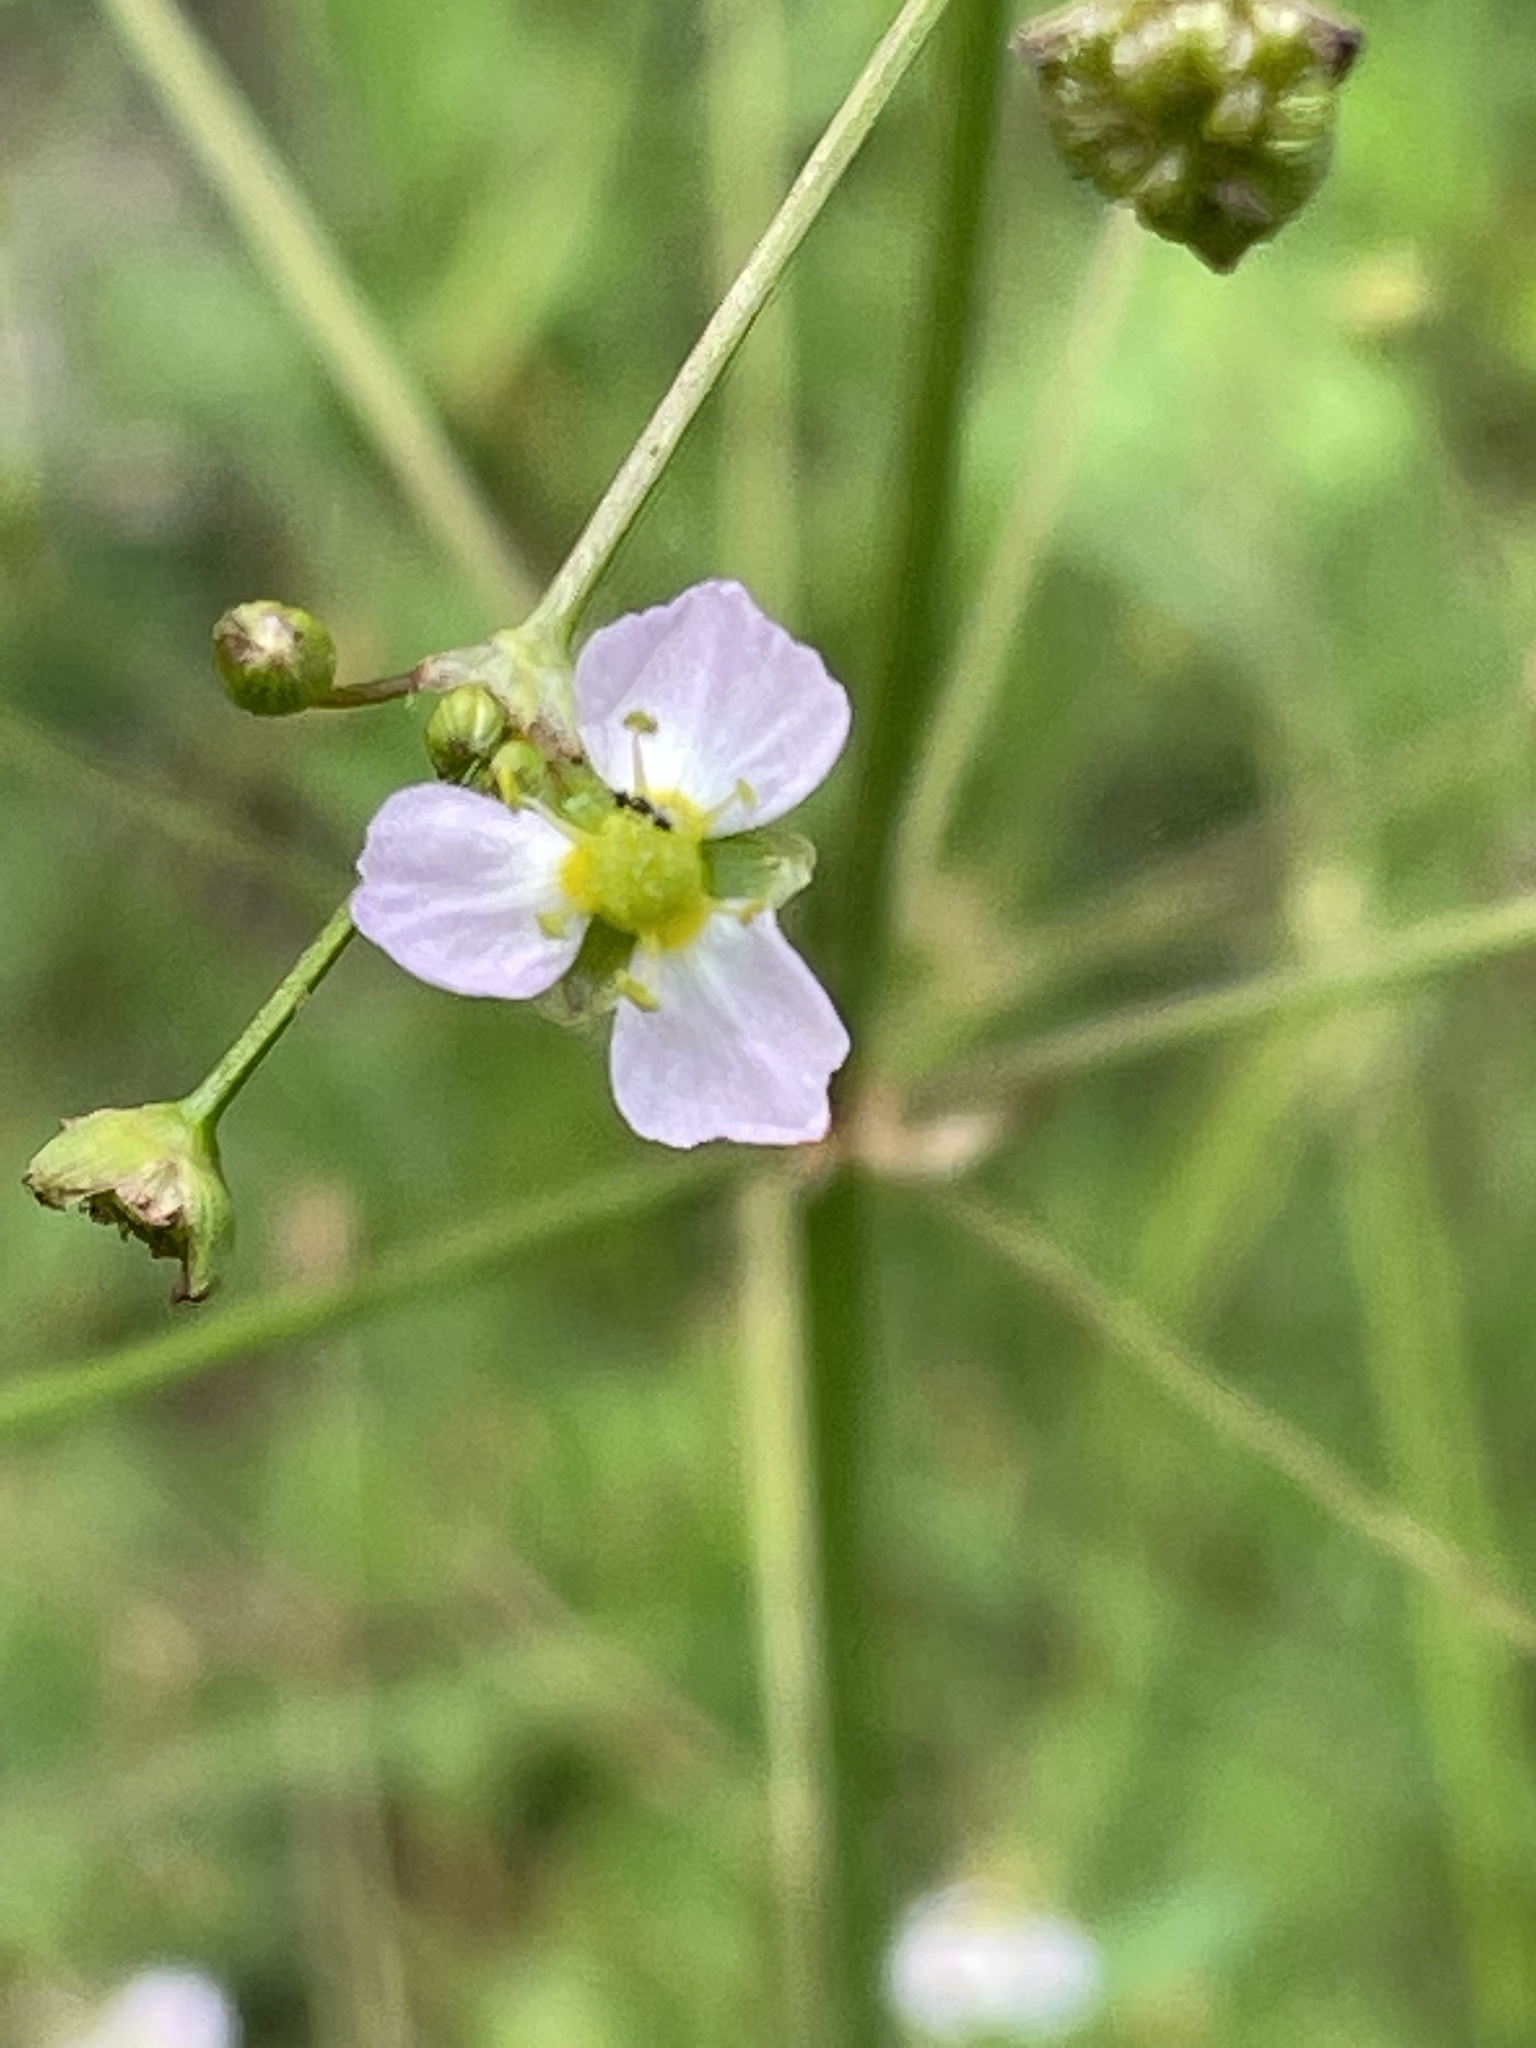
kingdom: Plantae
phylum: Tracheophyta
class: Liliopsida
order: Alismatales
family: Alismataceae
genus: Alisma
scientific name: Alisma plantago-aquatica
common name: Water-plantain
